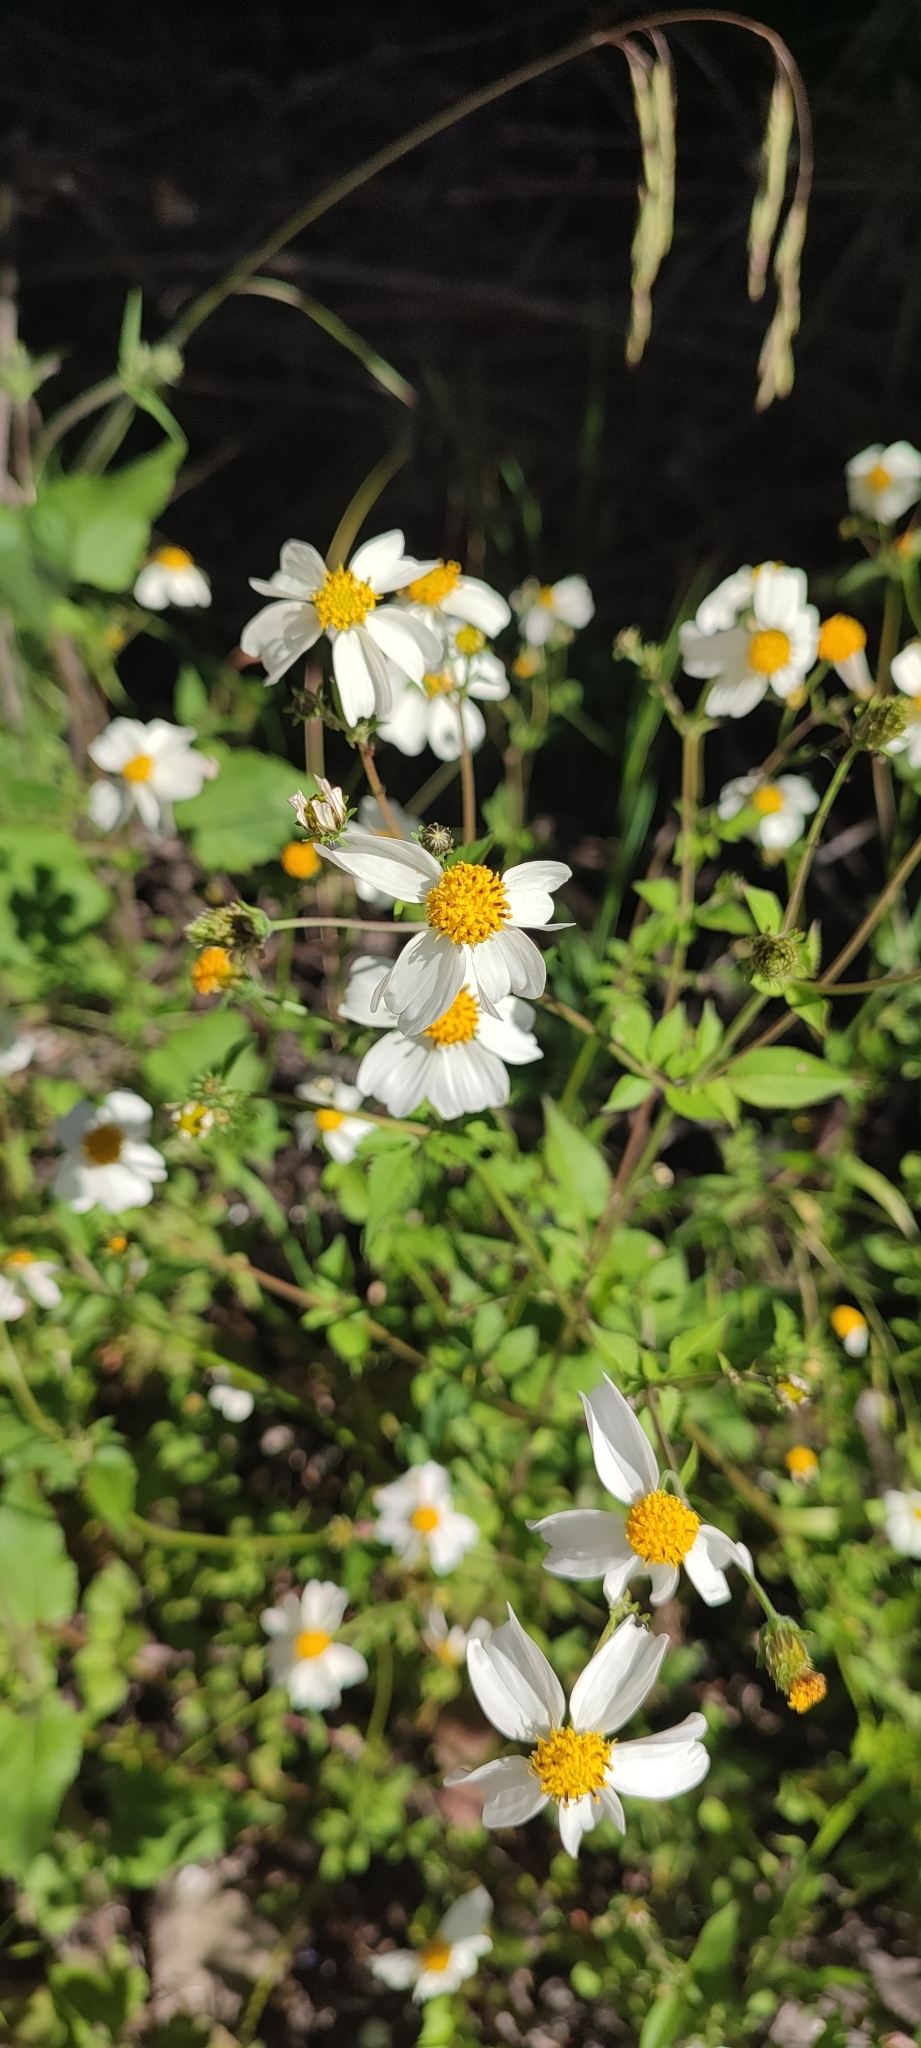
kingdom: Plantae
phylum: Tracheophyta
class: Magnoliopsida
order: Asterales
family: Asteraceae
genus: Bidens
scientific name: Bidens odorata
